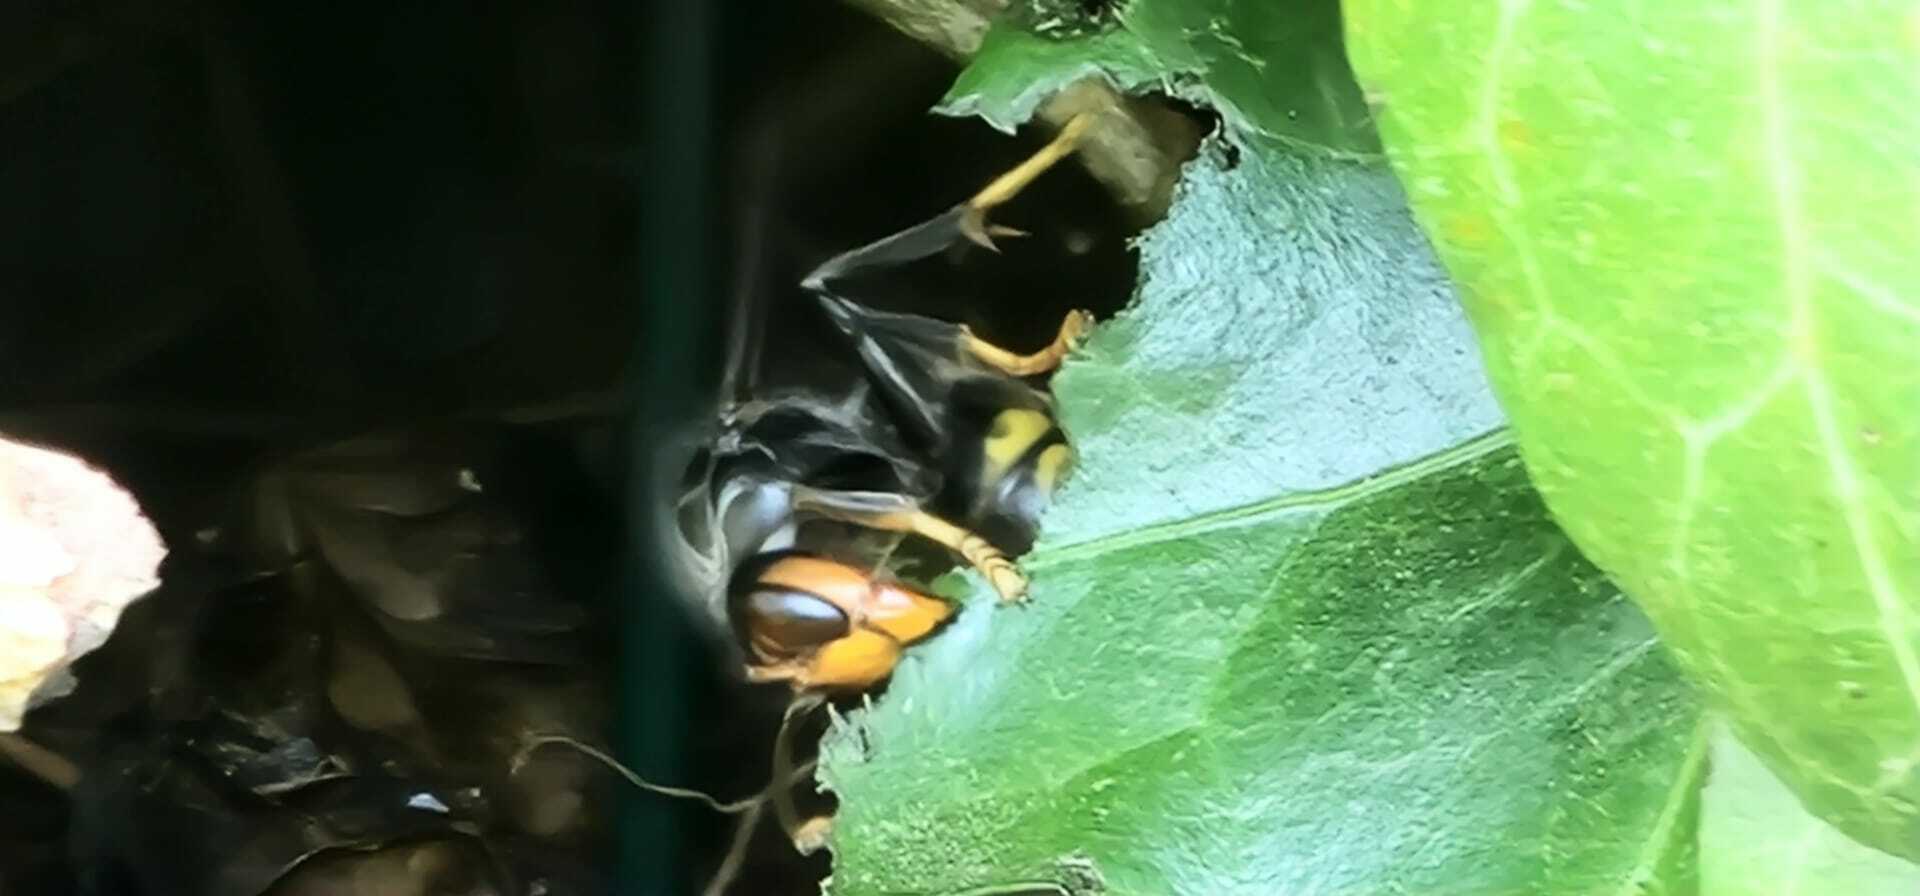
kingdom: Animalia
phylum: Arthropoda
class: Insecta
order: Hymenoptera
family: Vespidae
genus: Vespa
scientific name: Vespa velutina
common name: Asian hornet
